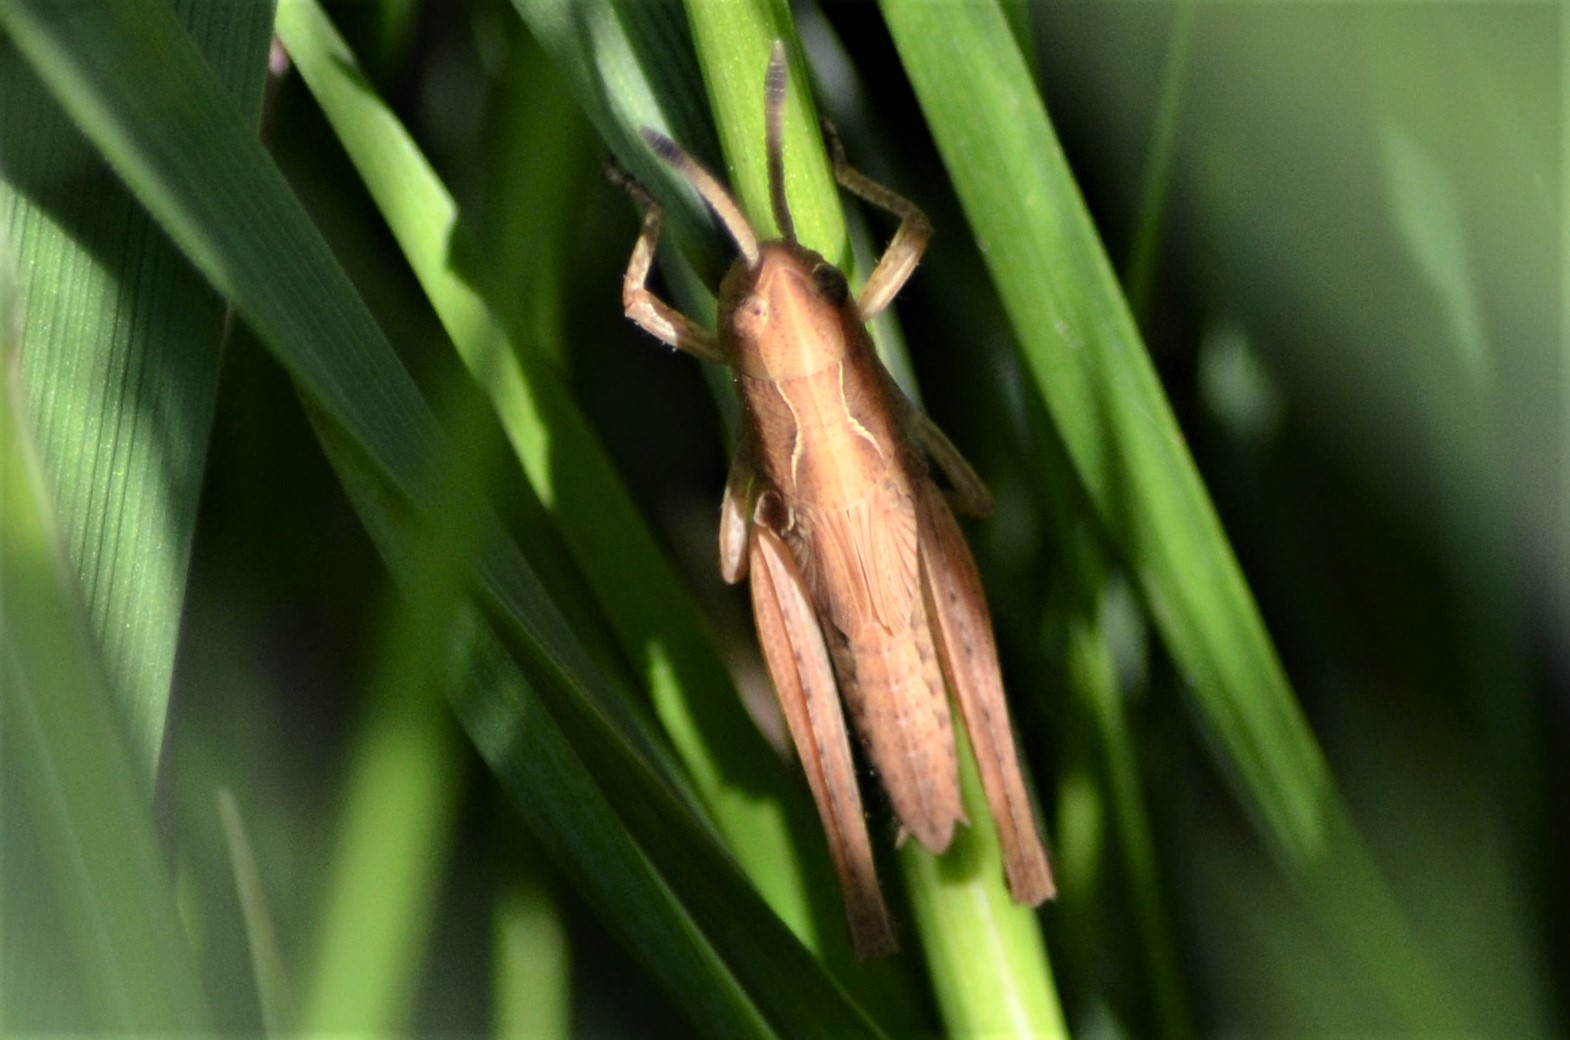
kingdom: Animalia
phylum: Arthropoda
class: Insecta
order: Orthoptera
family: Acrididae
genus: Gomphocerippus
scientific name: Gomphocerippus rufus
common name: Rufous grasshopper
